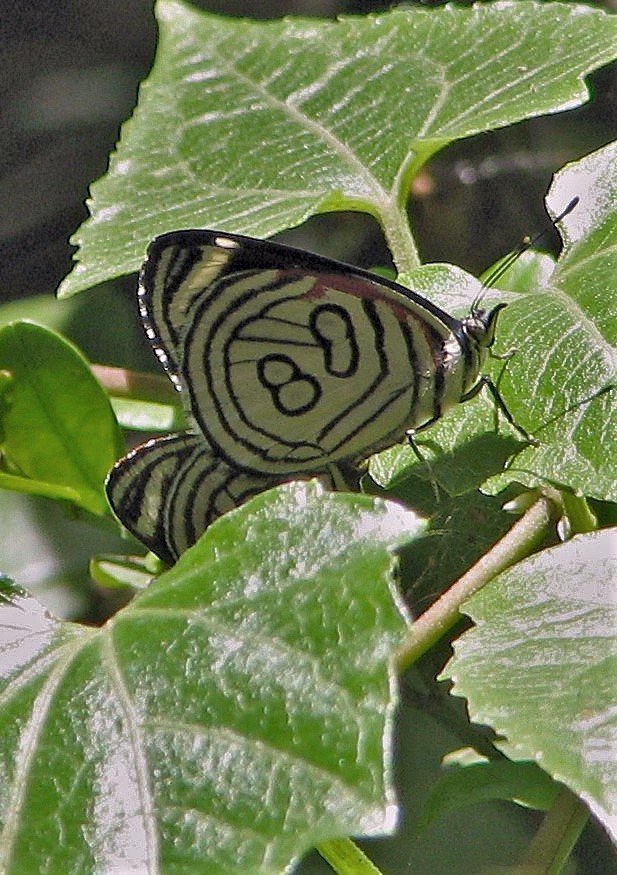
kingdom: Animalia
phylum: Arthropoda
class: Insecta
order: Lepidoptera
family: Nymphalidae
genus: Diaethria
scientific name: Diaethria candrena
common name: Number eighty
